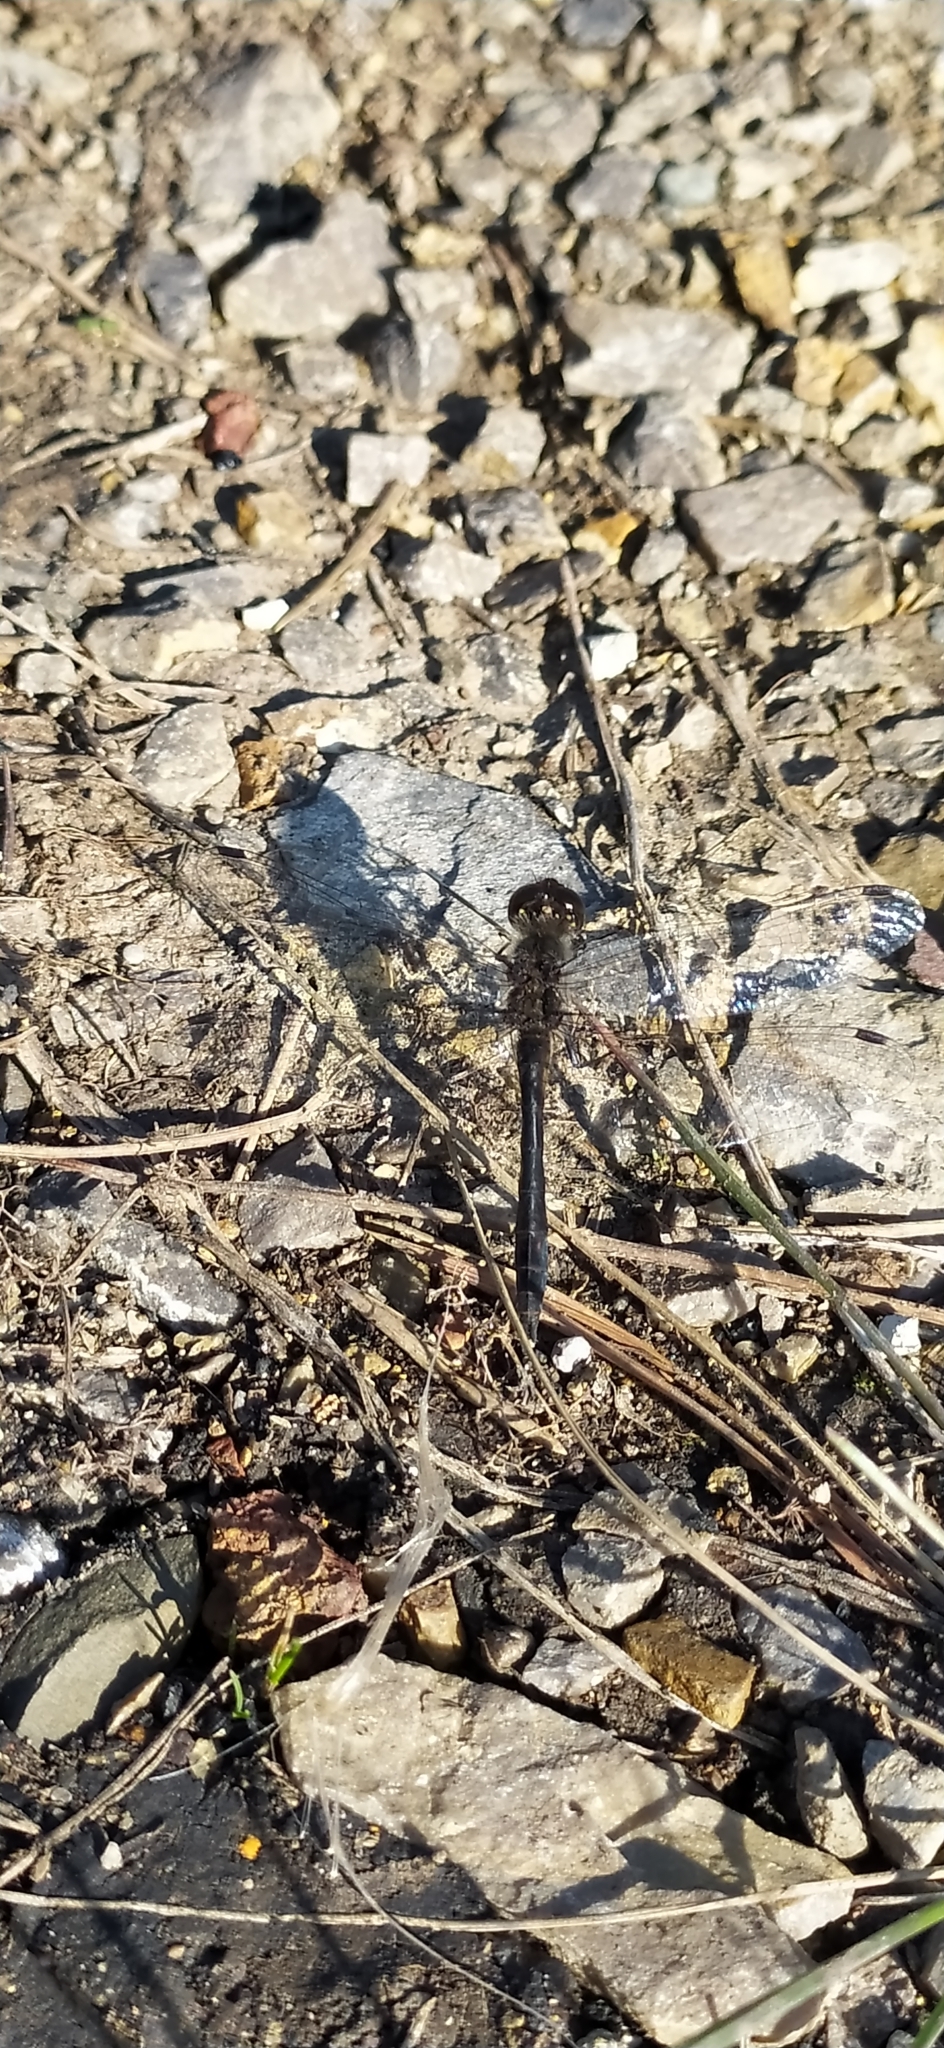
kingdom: Animalia
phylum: Arthropoda
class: Insecta
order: Odonata
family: Libellulidae
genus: Sympetrum
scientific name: Sympetrum danae
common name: Black darter
